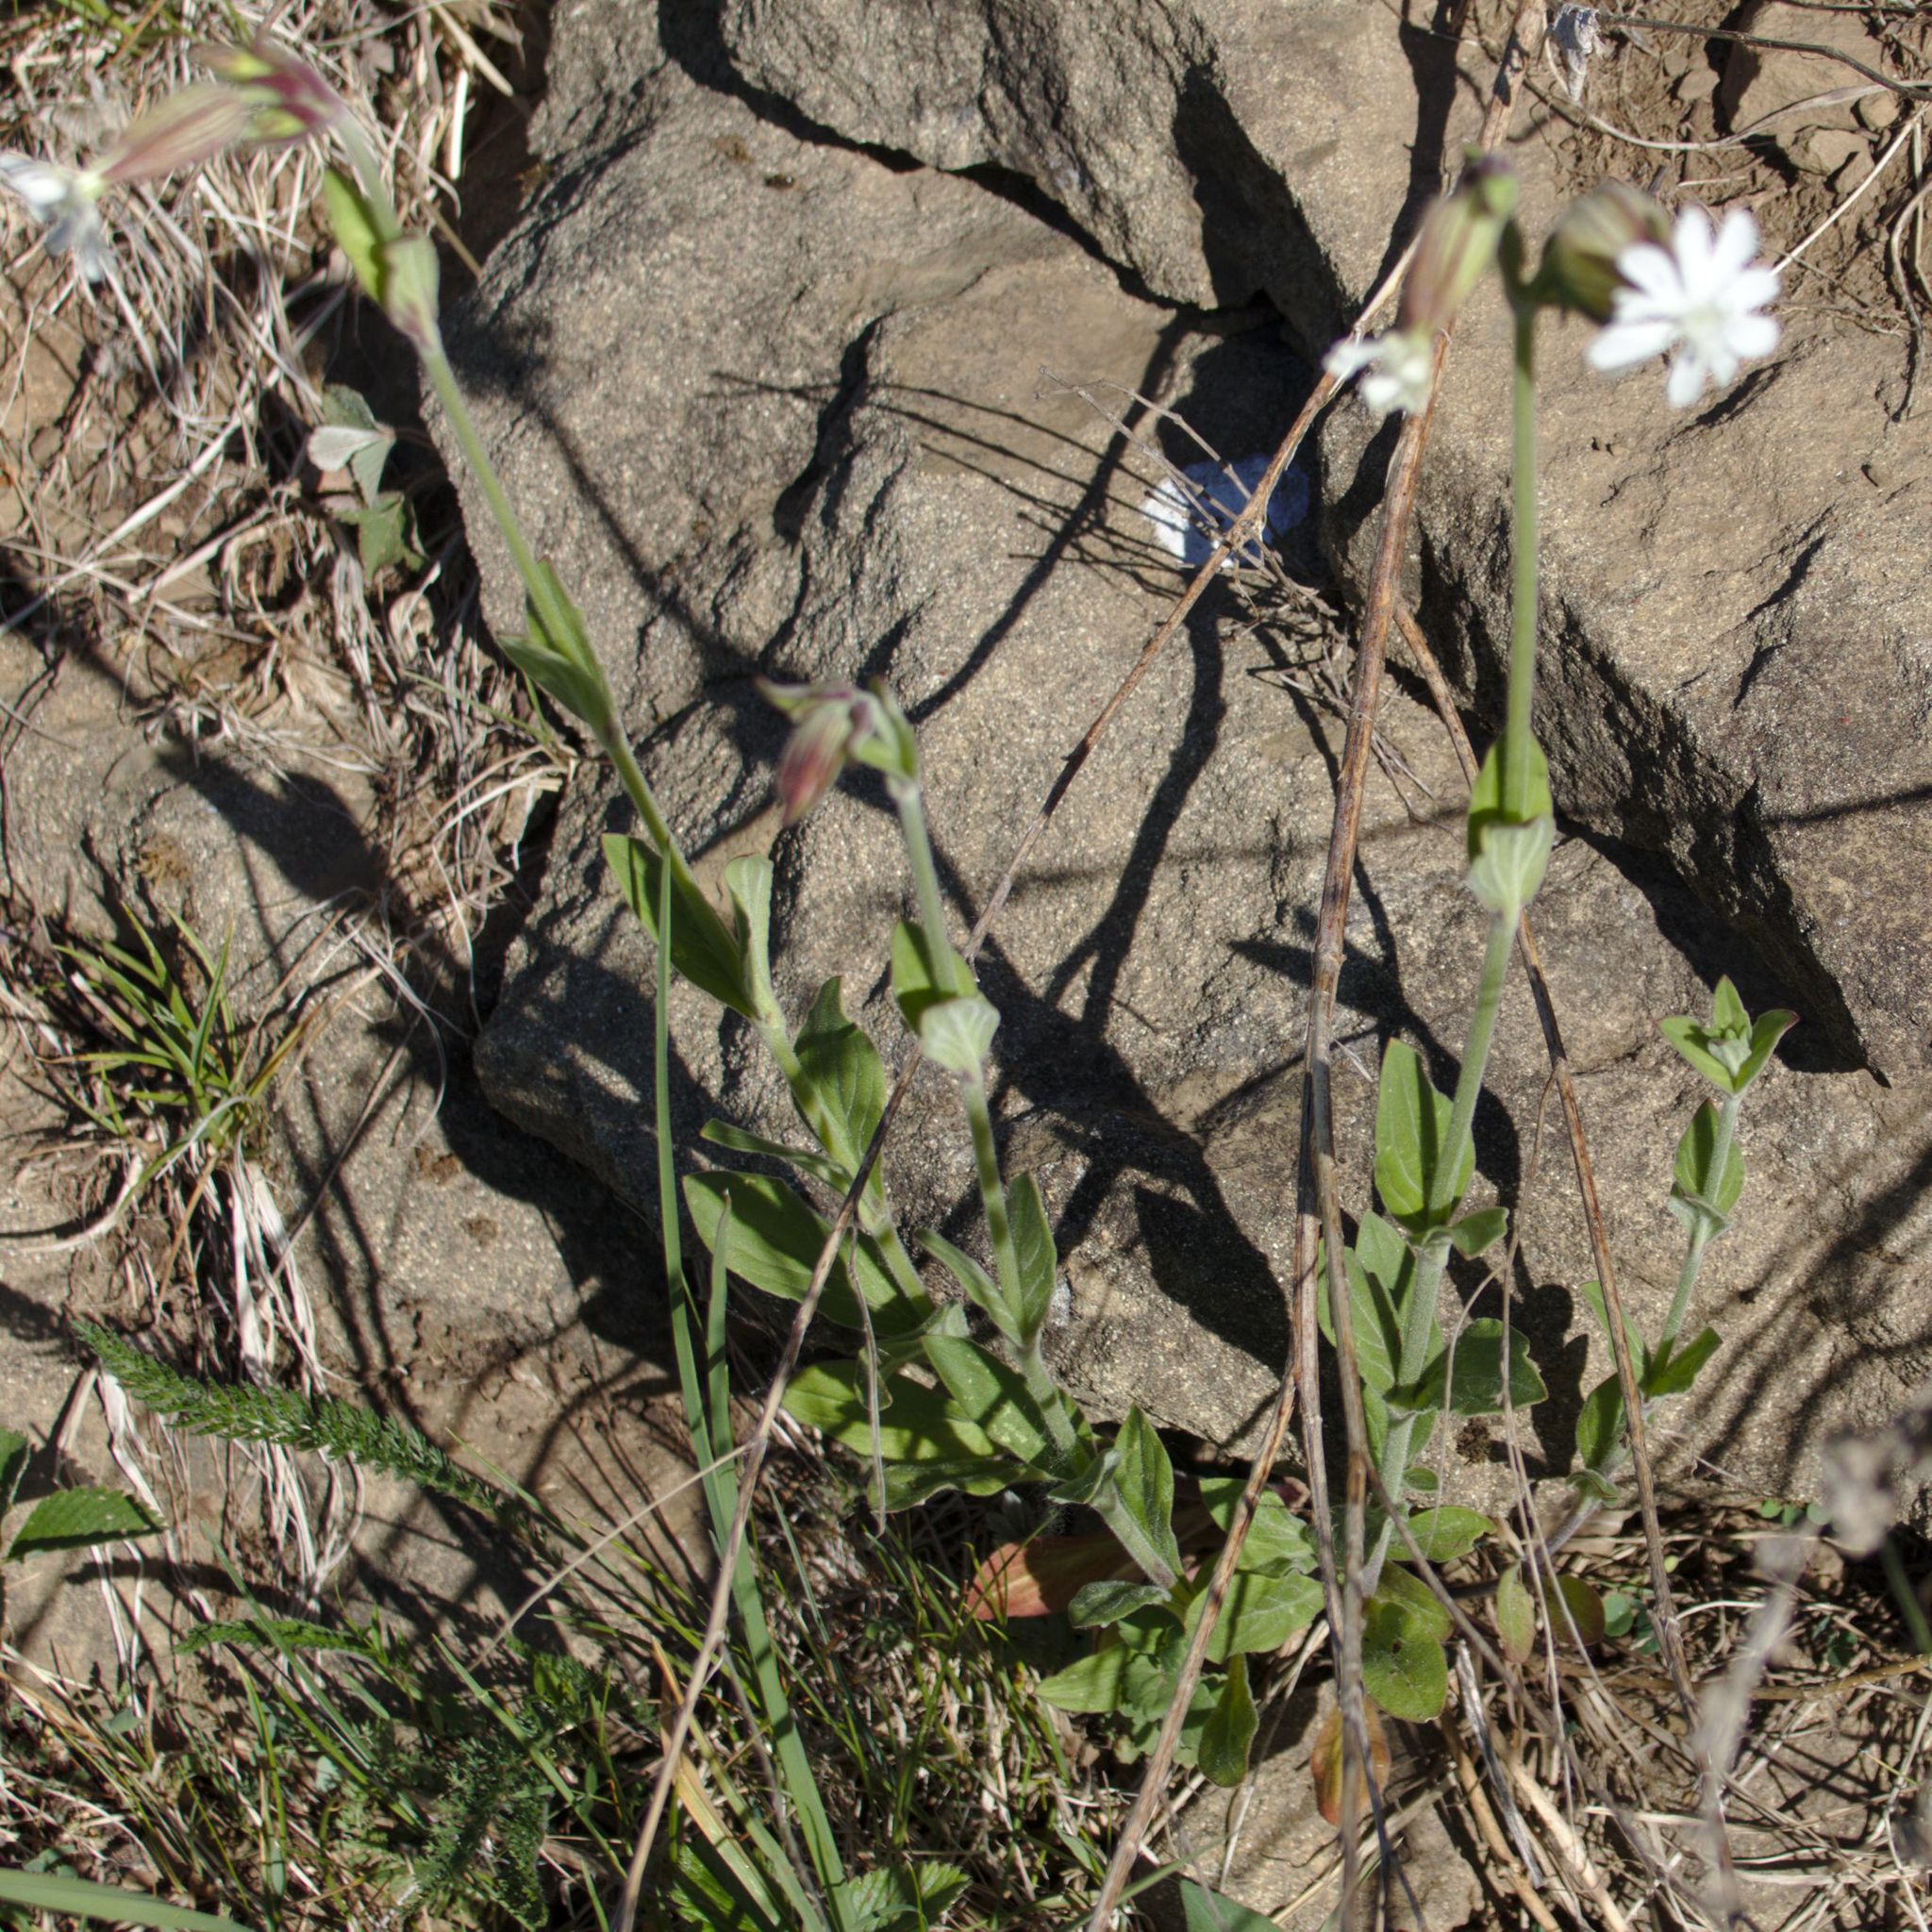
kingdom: Plantae
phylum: Tracheophyta
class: Magnoliopsida
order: Caryophyllales
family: Caryophyllaceae
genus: Silene
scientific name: Silene latifolia
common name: White campion
